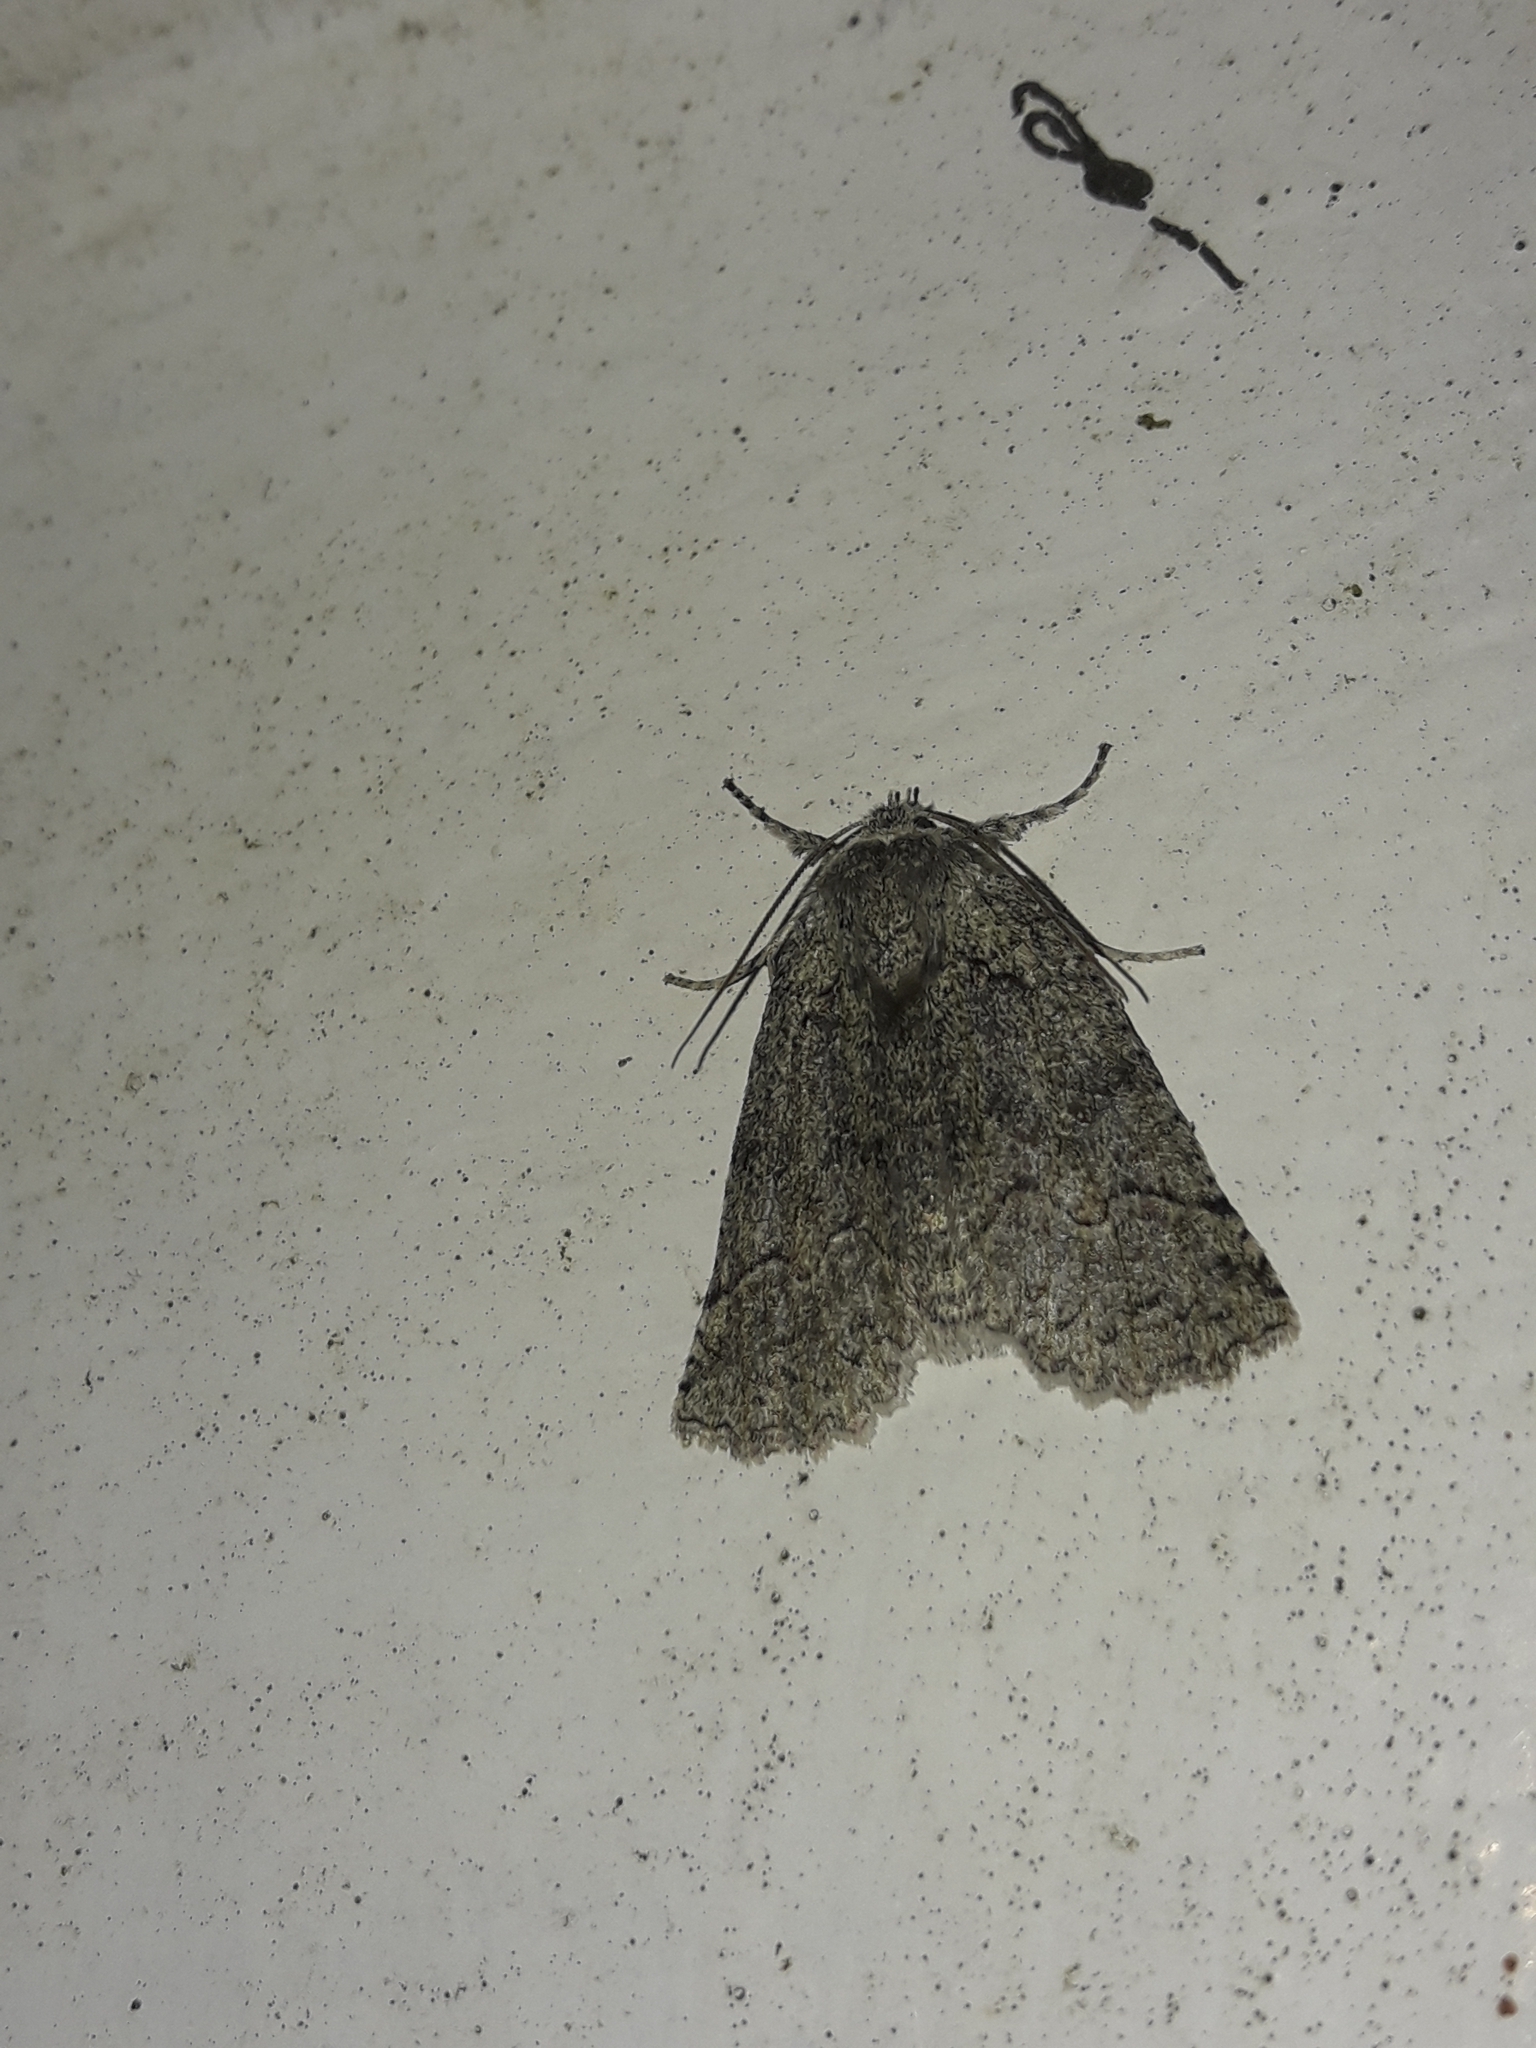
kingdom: Animalia
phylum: Arthropoda
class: Insecta
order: Lepidoptera
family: Geometridae
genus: Declana
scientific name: Declana floccosa
